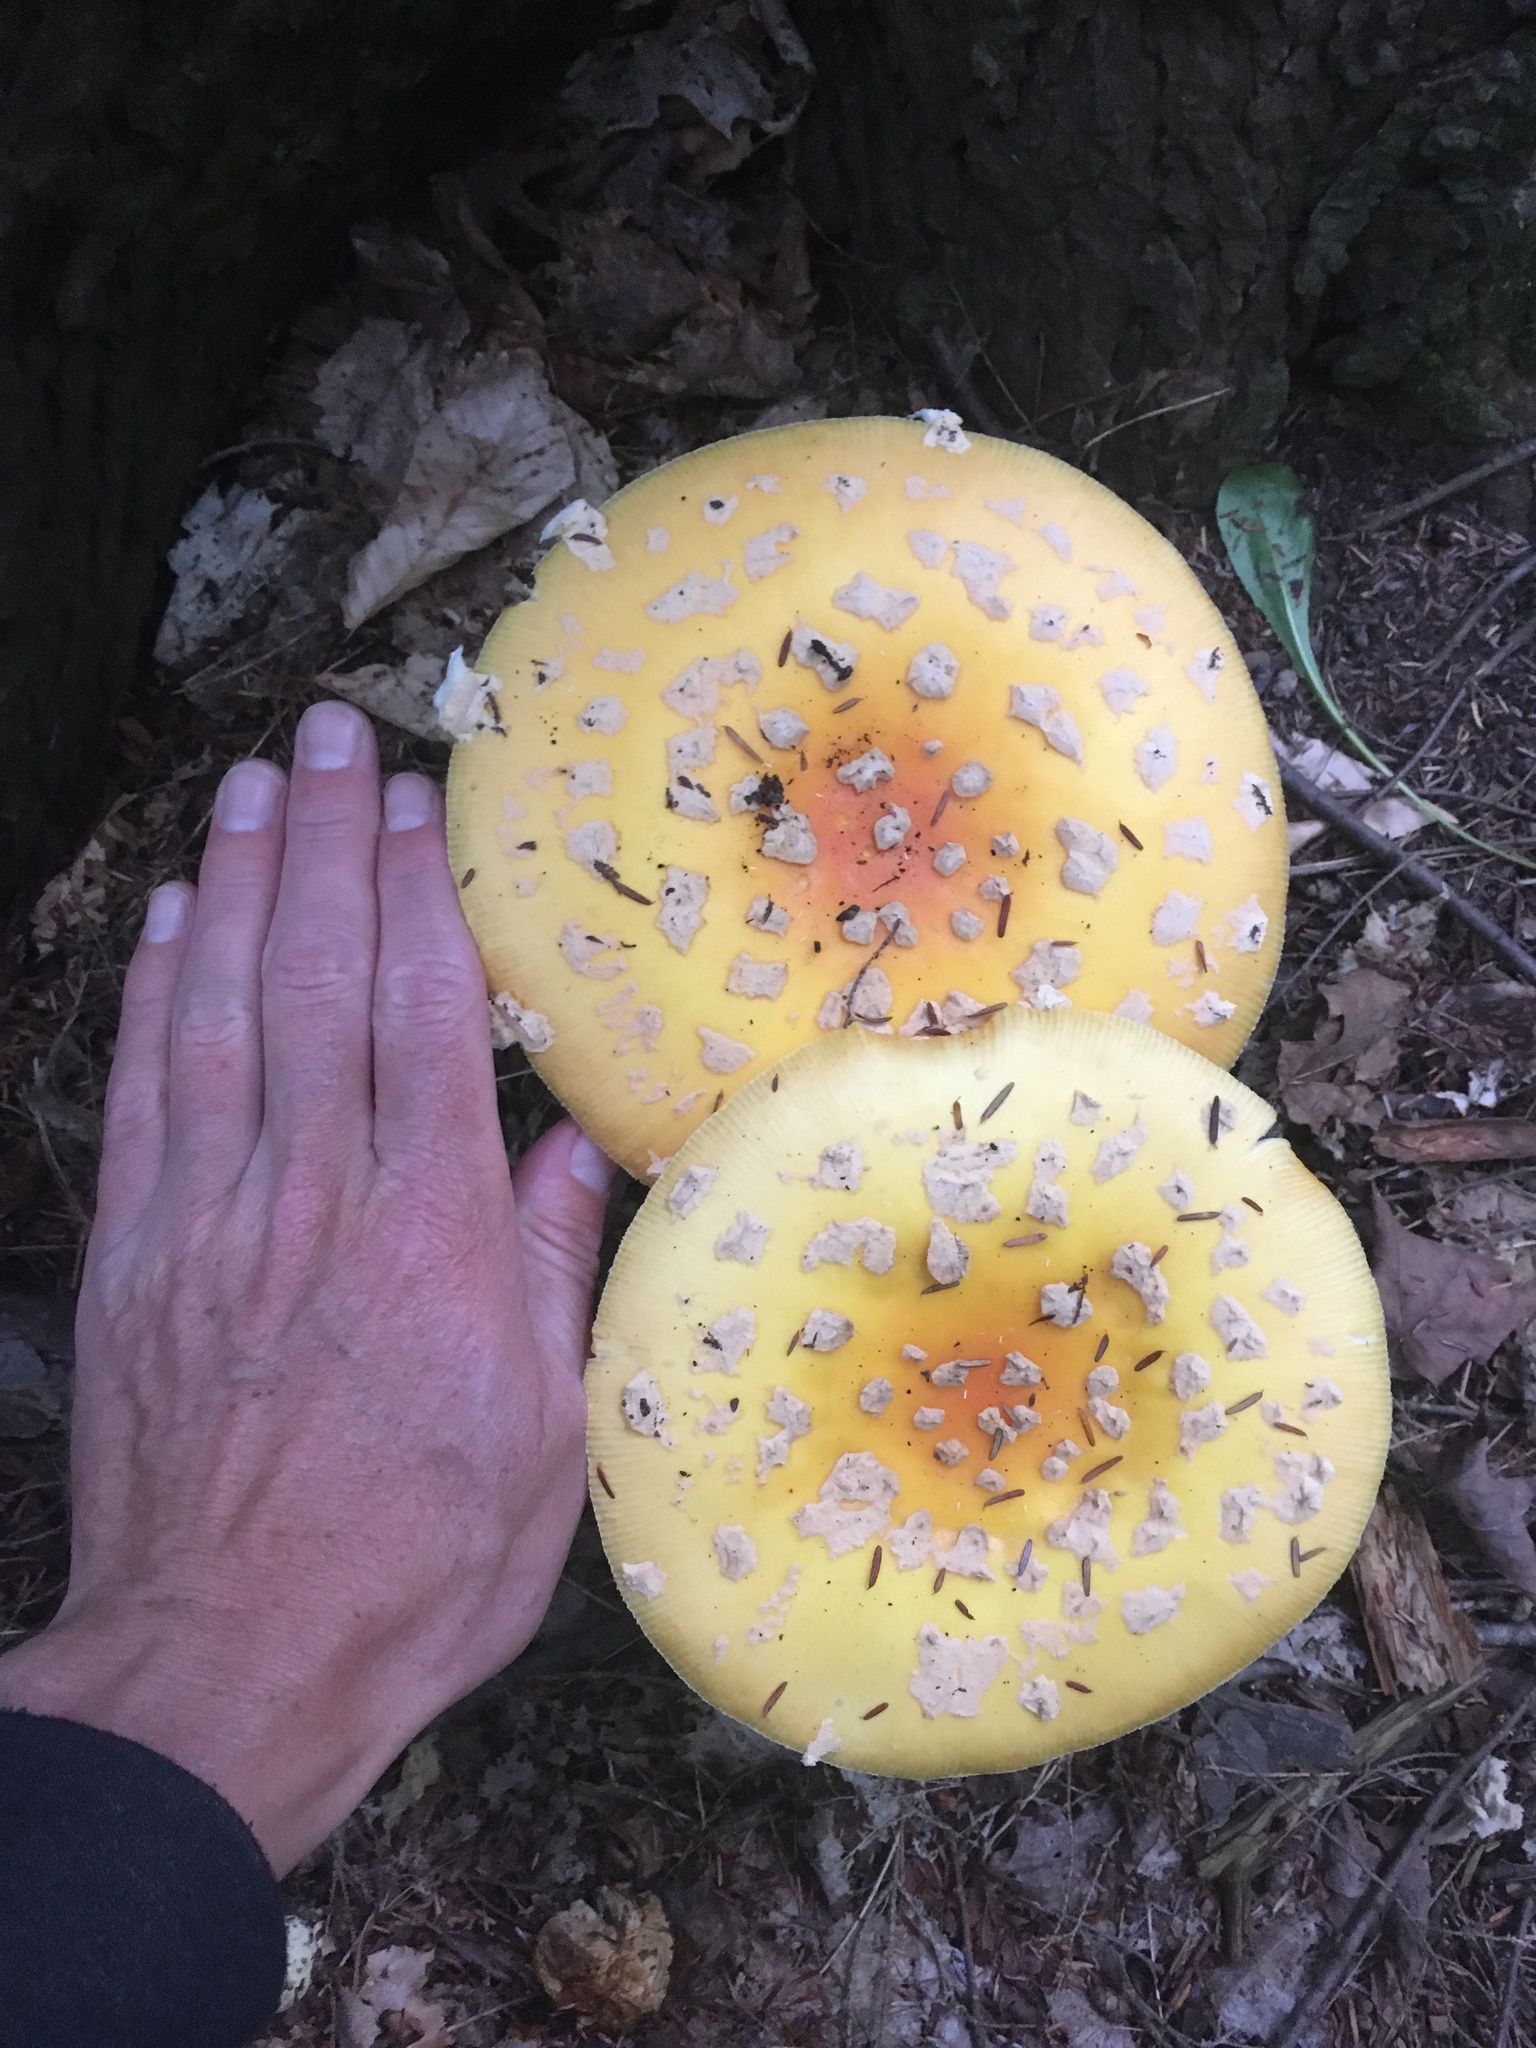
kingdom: Fungi
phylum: Basidiomycota
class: Agaricomycetes
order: Agaricales
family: Amanitaceae
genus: Amanita
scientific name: Amanita muscaria
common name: Fly agaric
